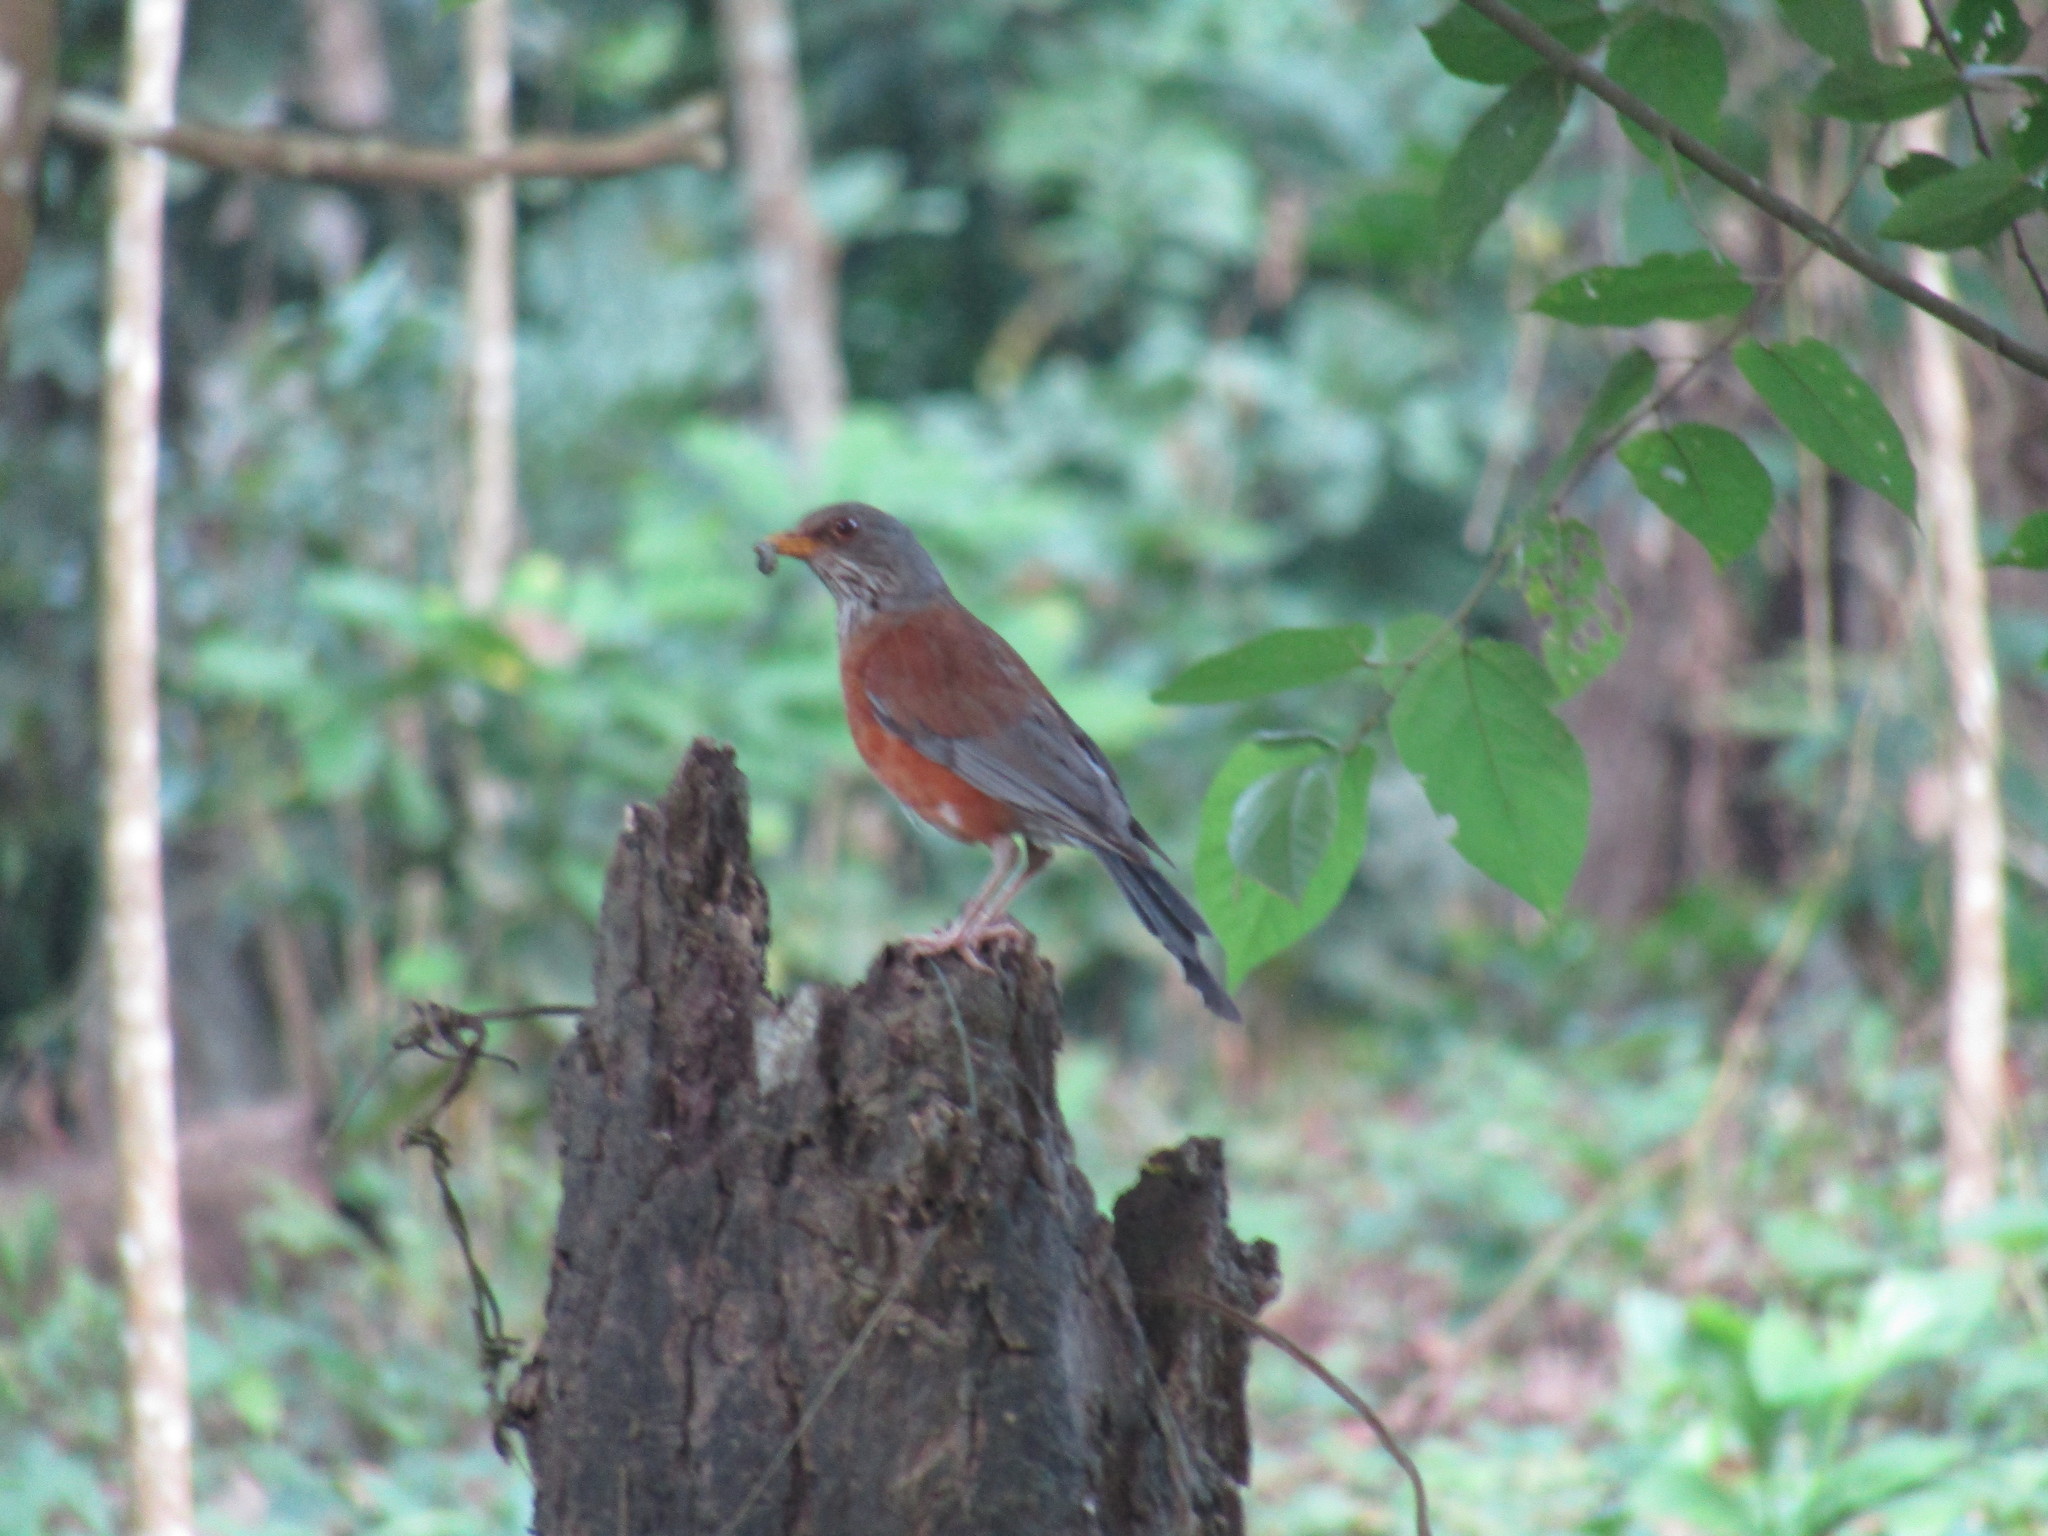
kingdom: Animalia
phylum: Chordata
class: Aves
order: Passeriformes
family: Turdidae
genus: Turdus
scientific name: Turdus rufopalliatus
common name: Rufous-backed robin
